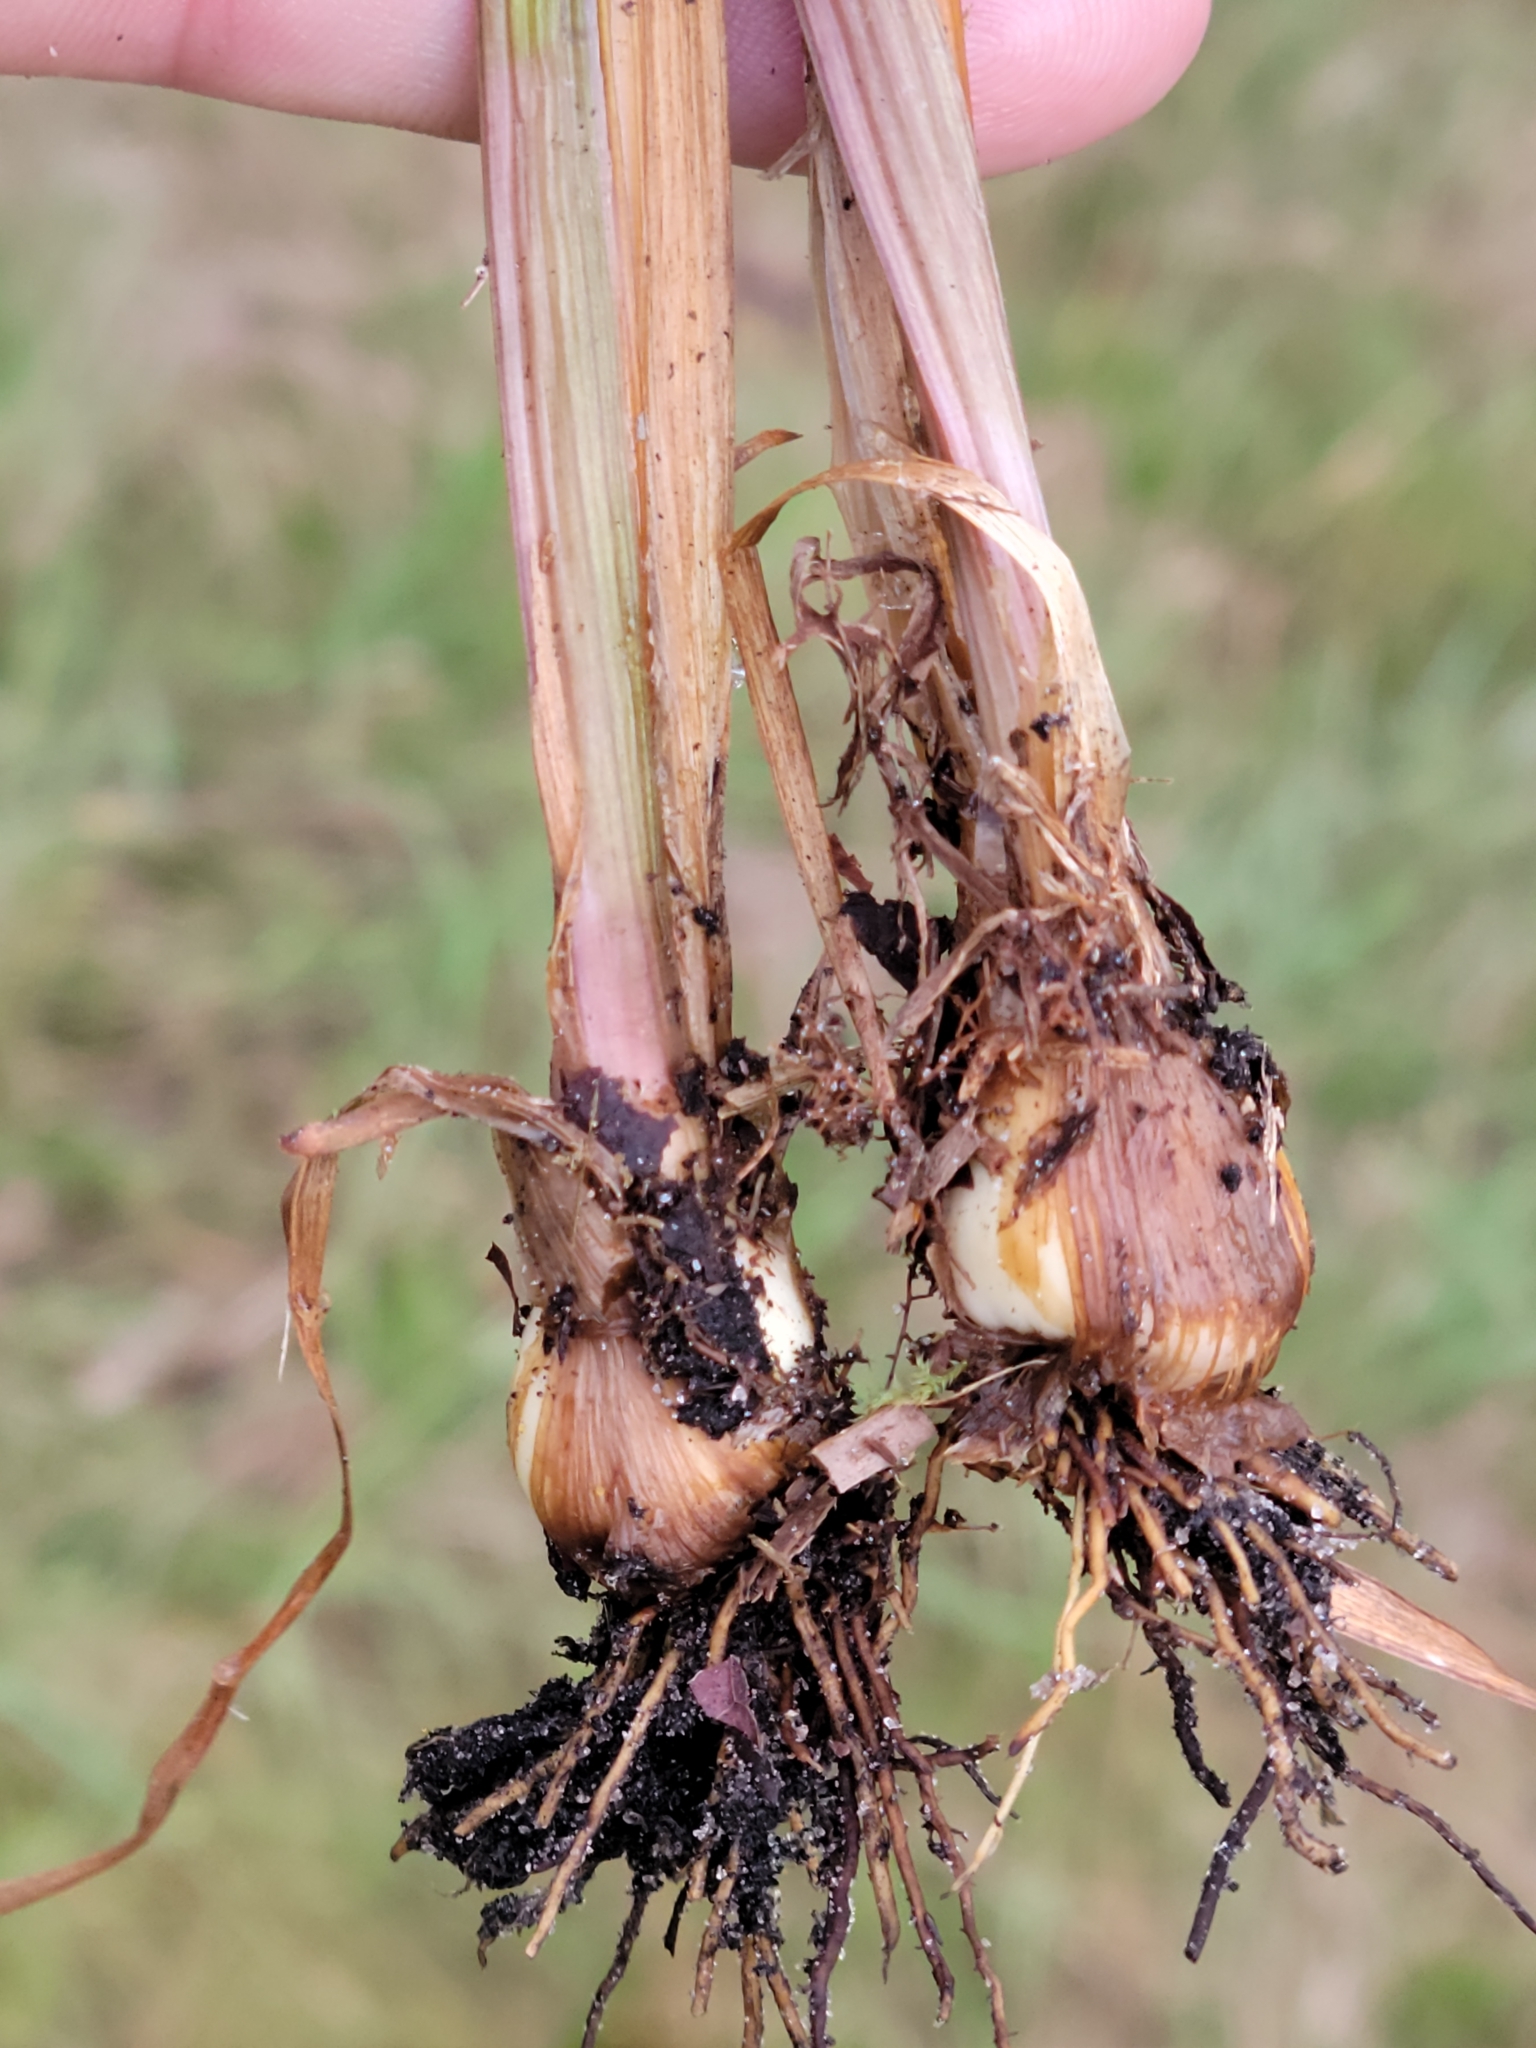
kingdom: Plantae
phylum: Tracheophyta
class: Liliopsida
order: Poales
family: Xyridaceae
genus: Xyris
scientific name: Xyris platylepis
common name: Tall yelloweyed grass
